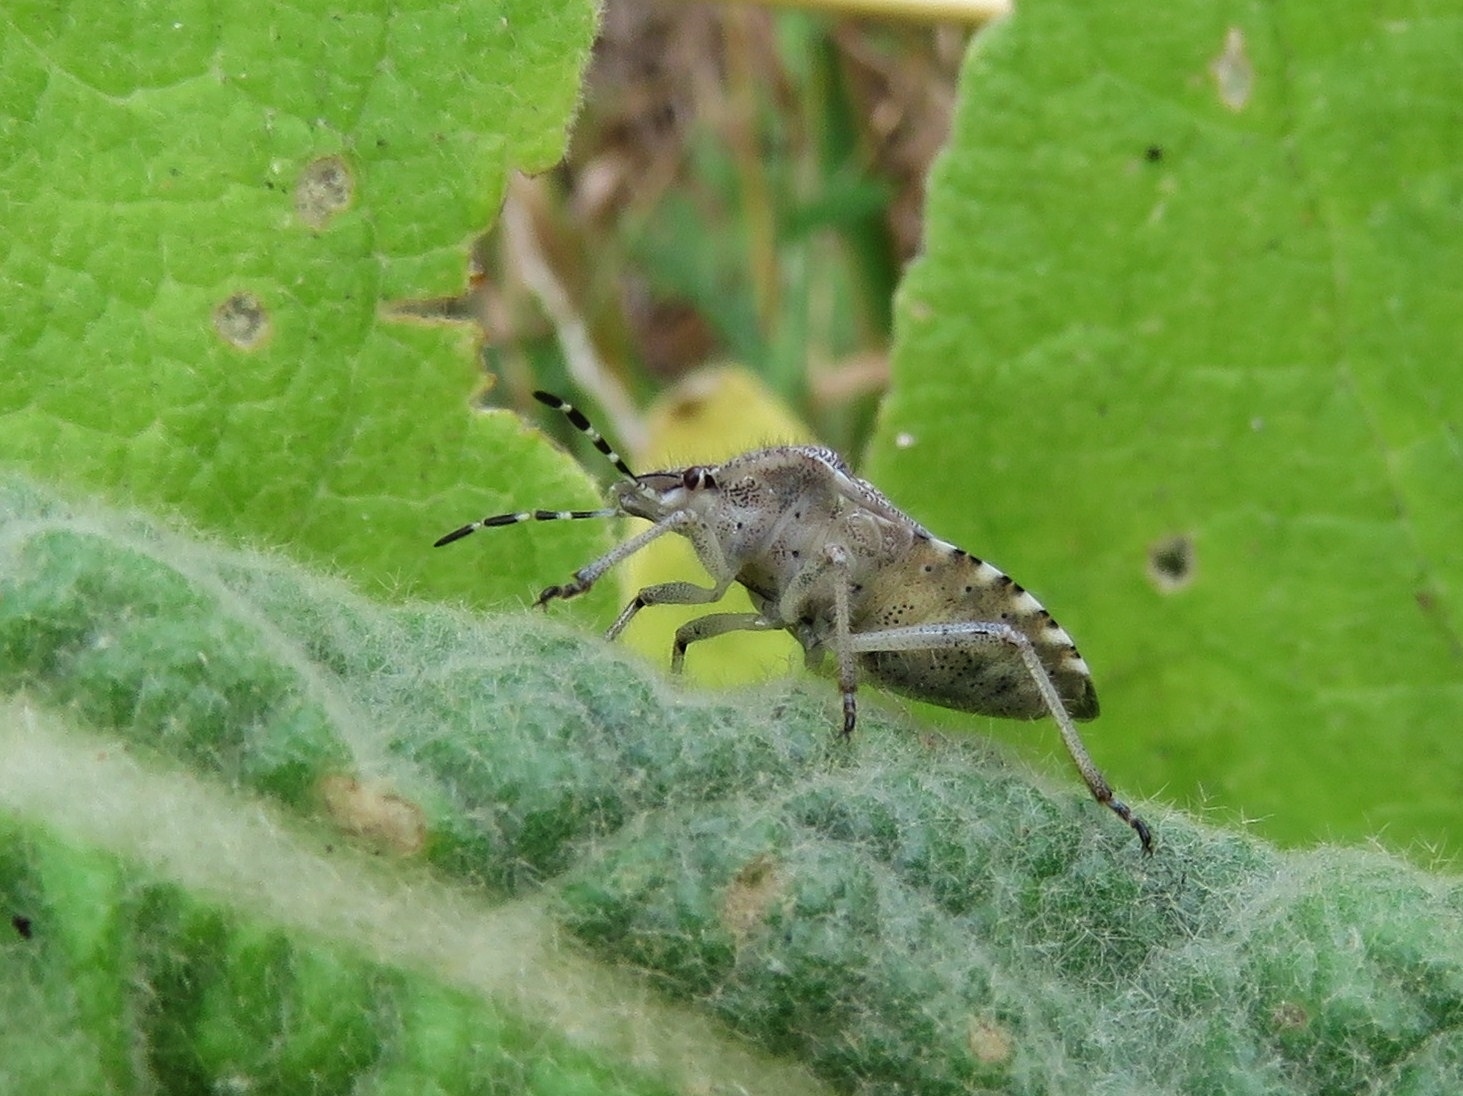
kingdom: Animalia
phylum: Arthropoda
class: Insecta
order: Hemiptera
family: Pentatomidae
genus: Dolycoris
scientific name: Dolycoris baccarum
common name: Sloe bug
